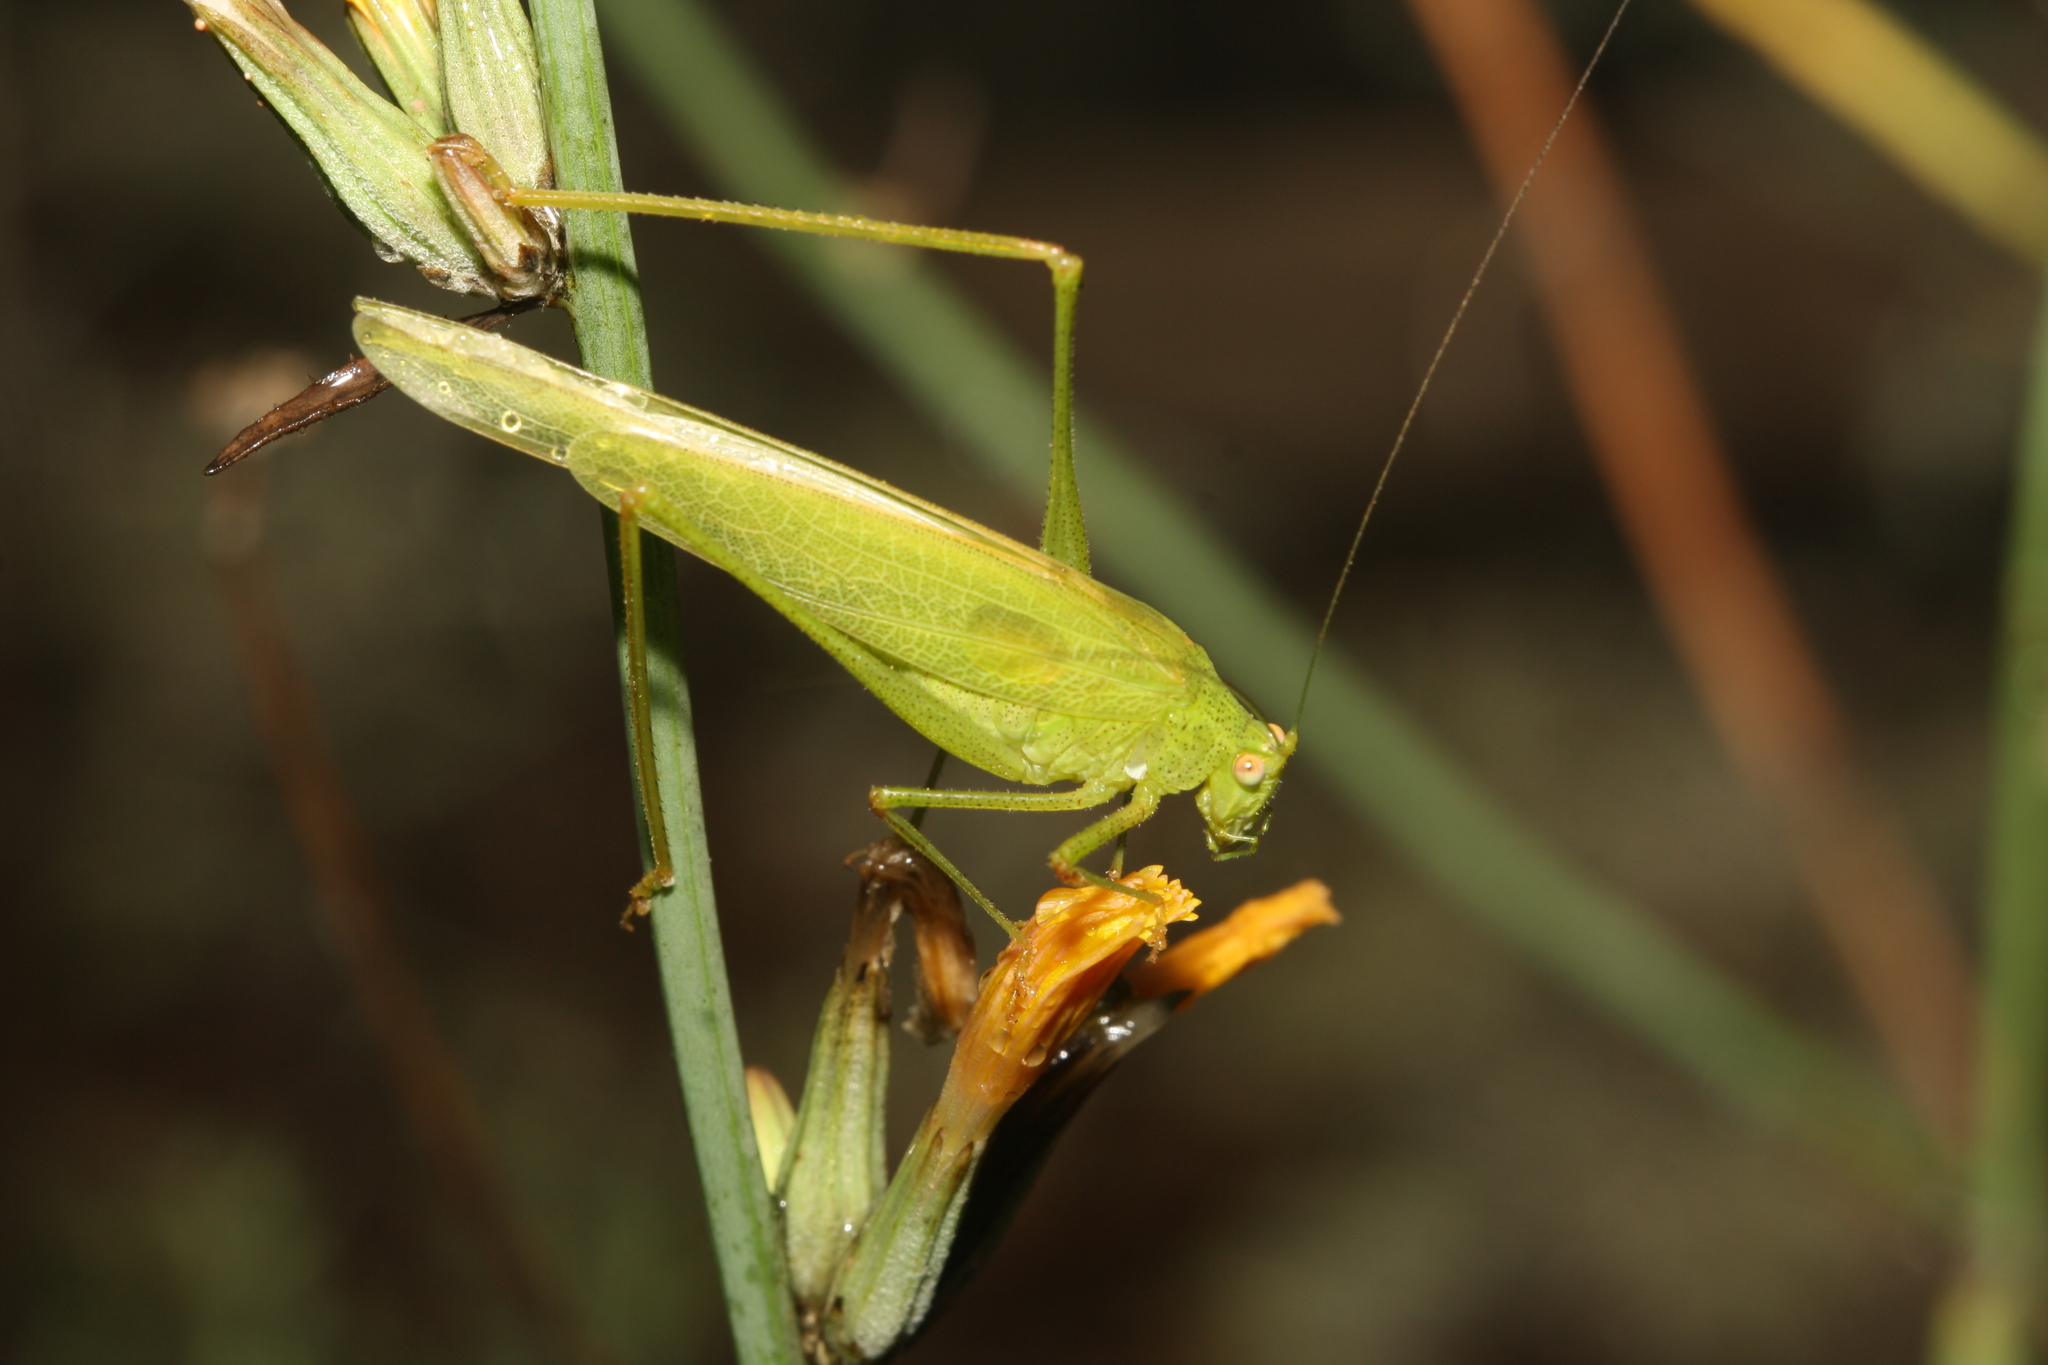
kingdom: Animalia
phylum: Arthropoda
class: Insecta
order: Orthoptera
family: Tettigoniidae
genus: Phaneroptera
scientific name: Phaneroptera nana
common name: Southern sickle bush-cricket
